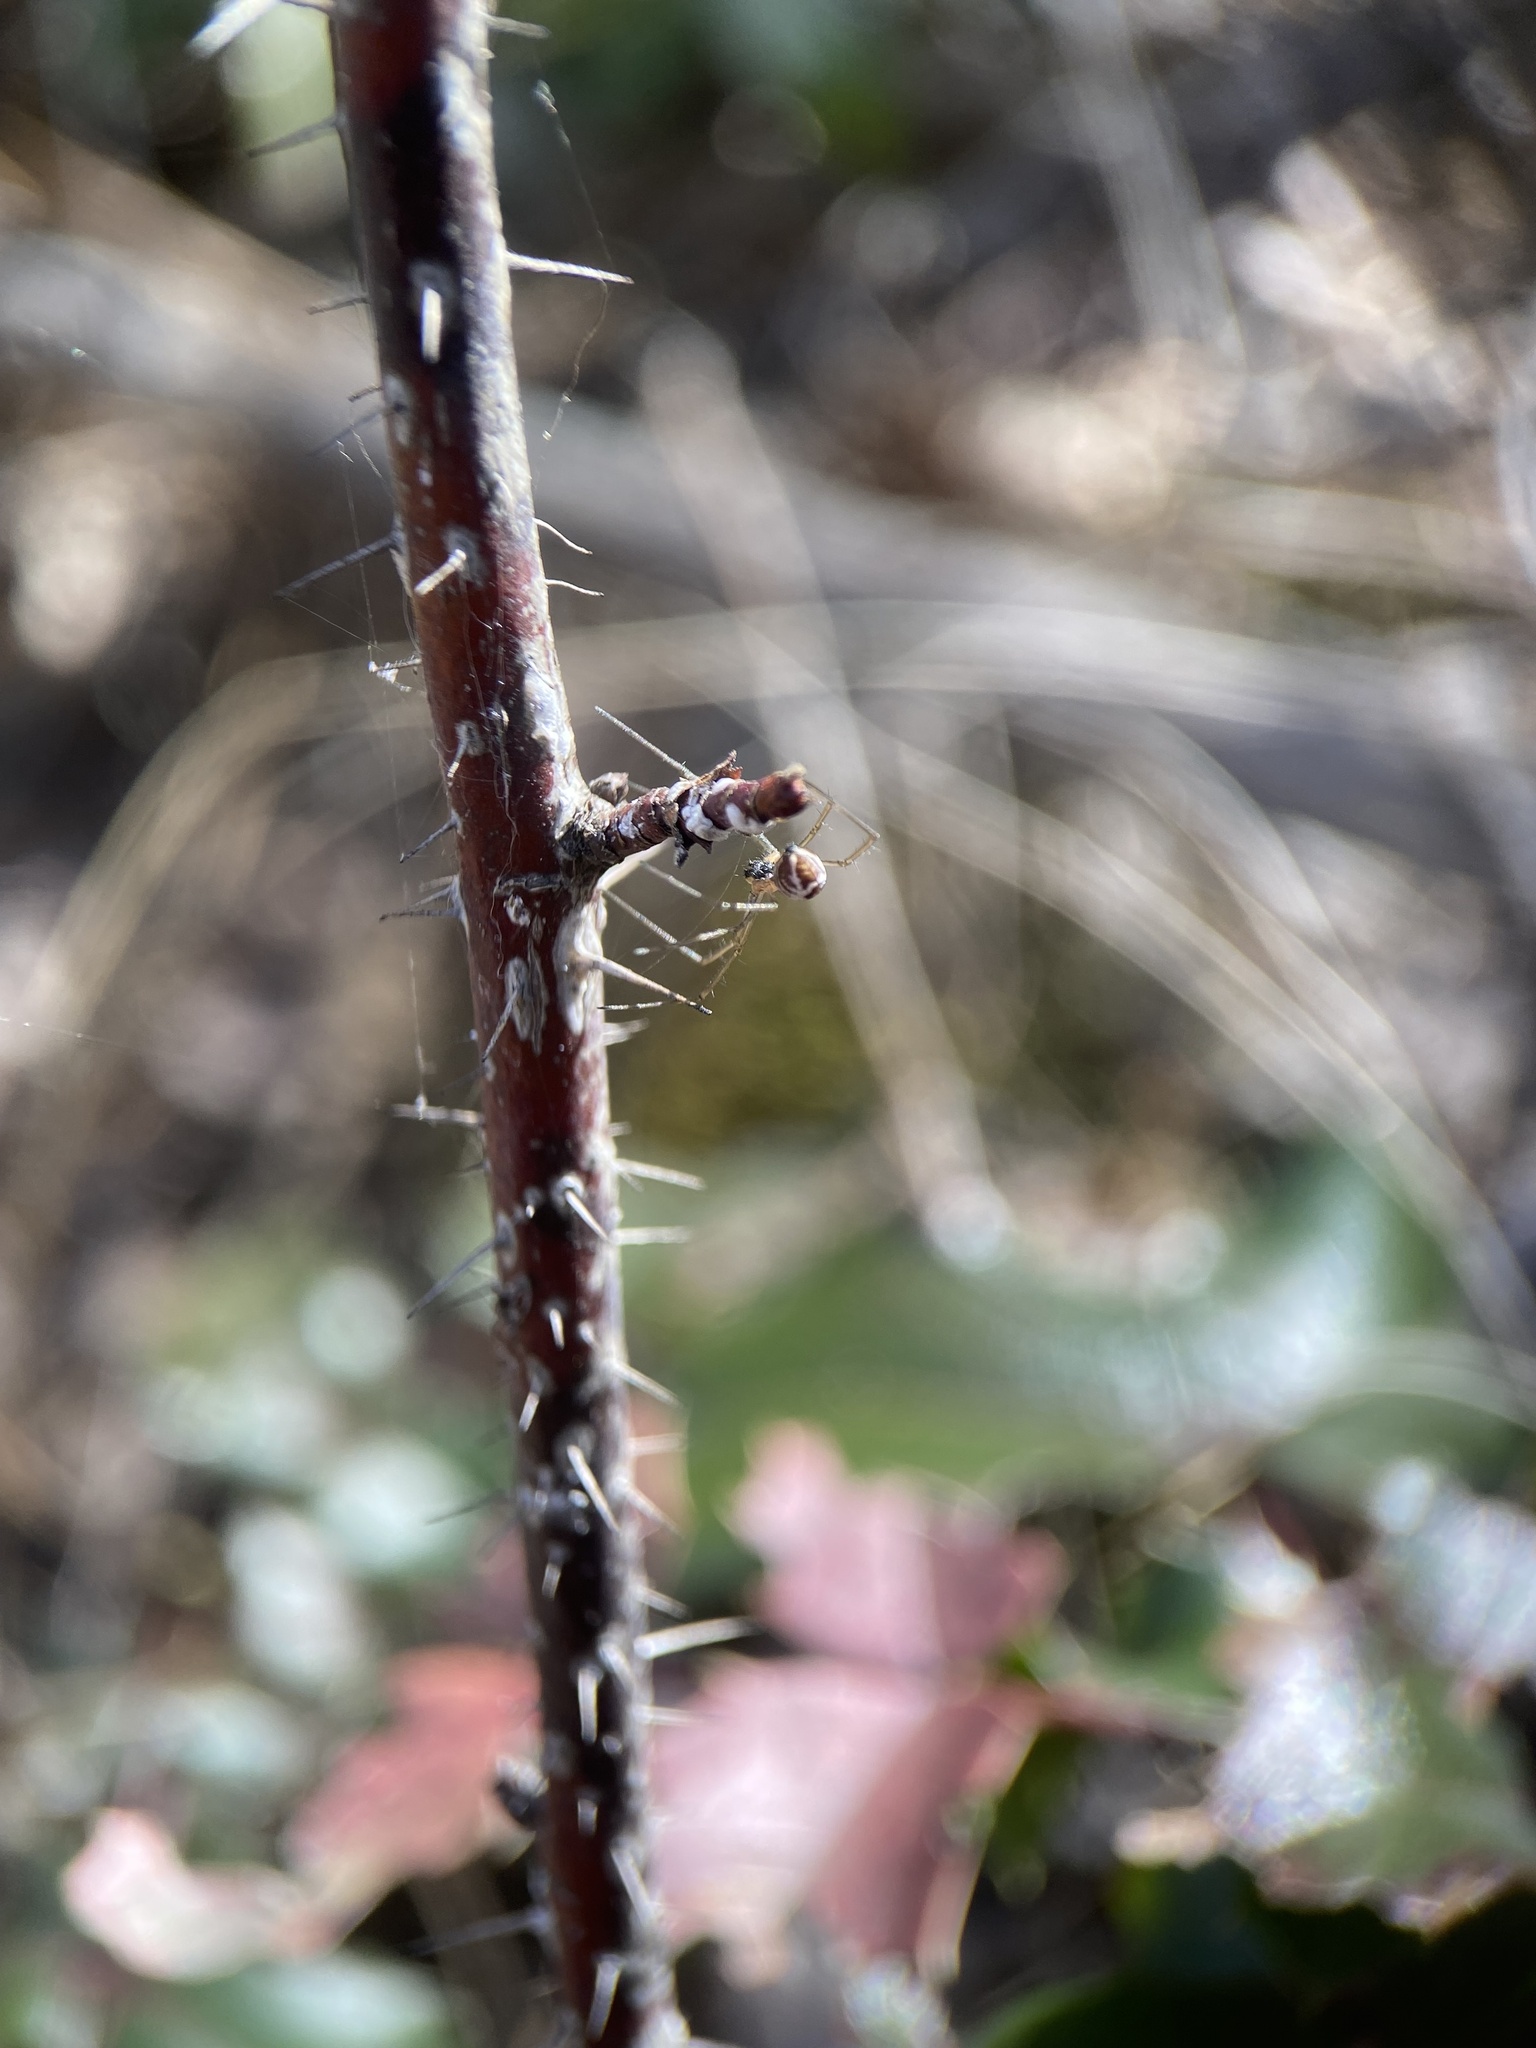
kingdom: Animalia
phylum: Arthropoda
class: Arachnida
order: Araneae
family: Linyphiidae
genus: Neriene
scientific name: Neriene radiata
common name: Filmy dome spider
